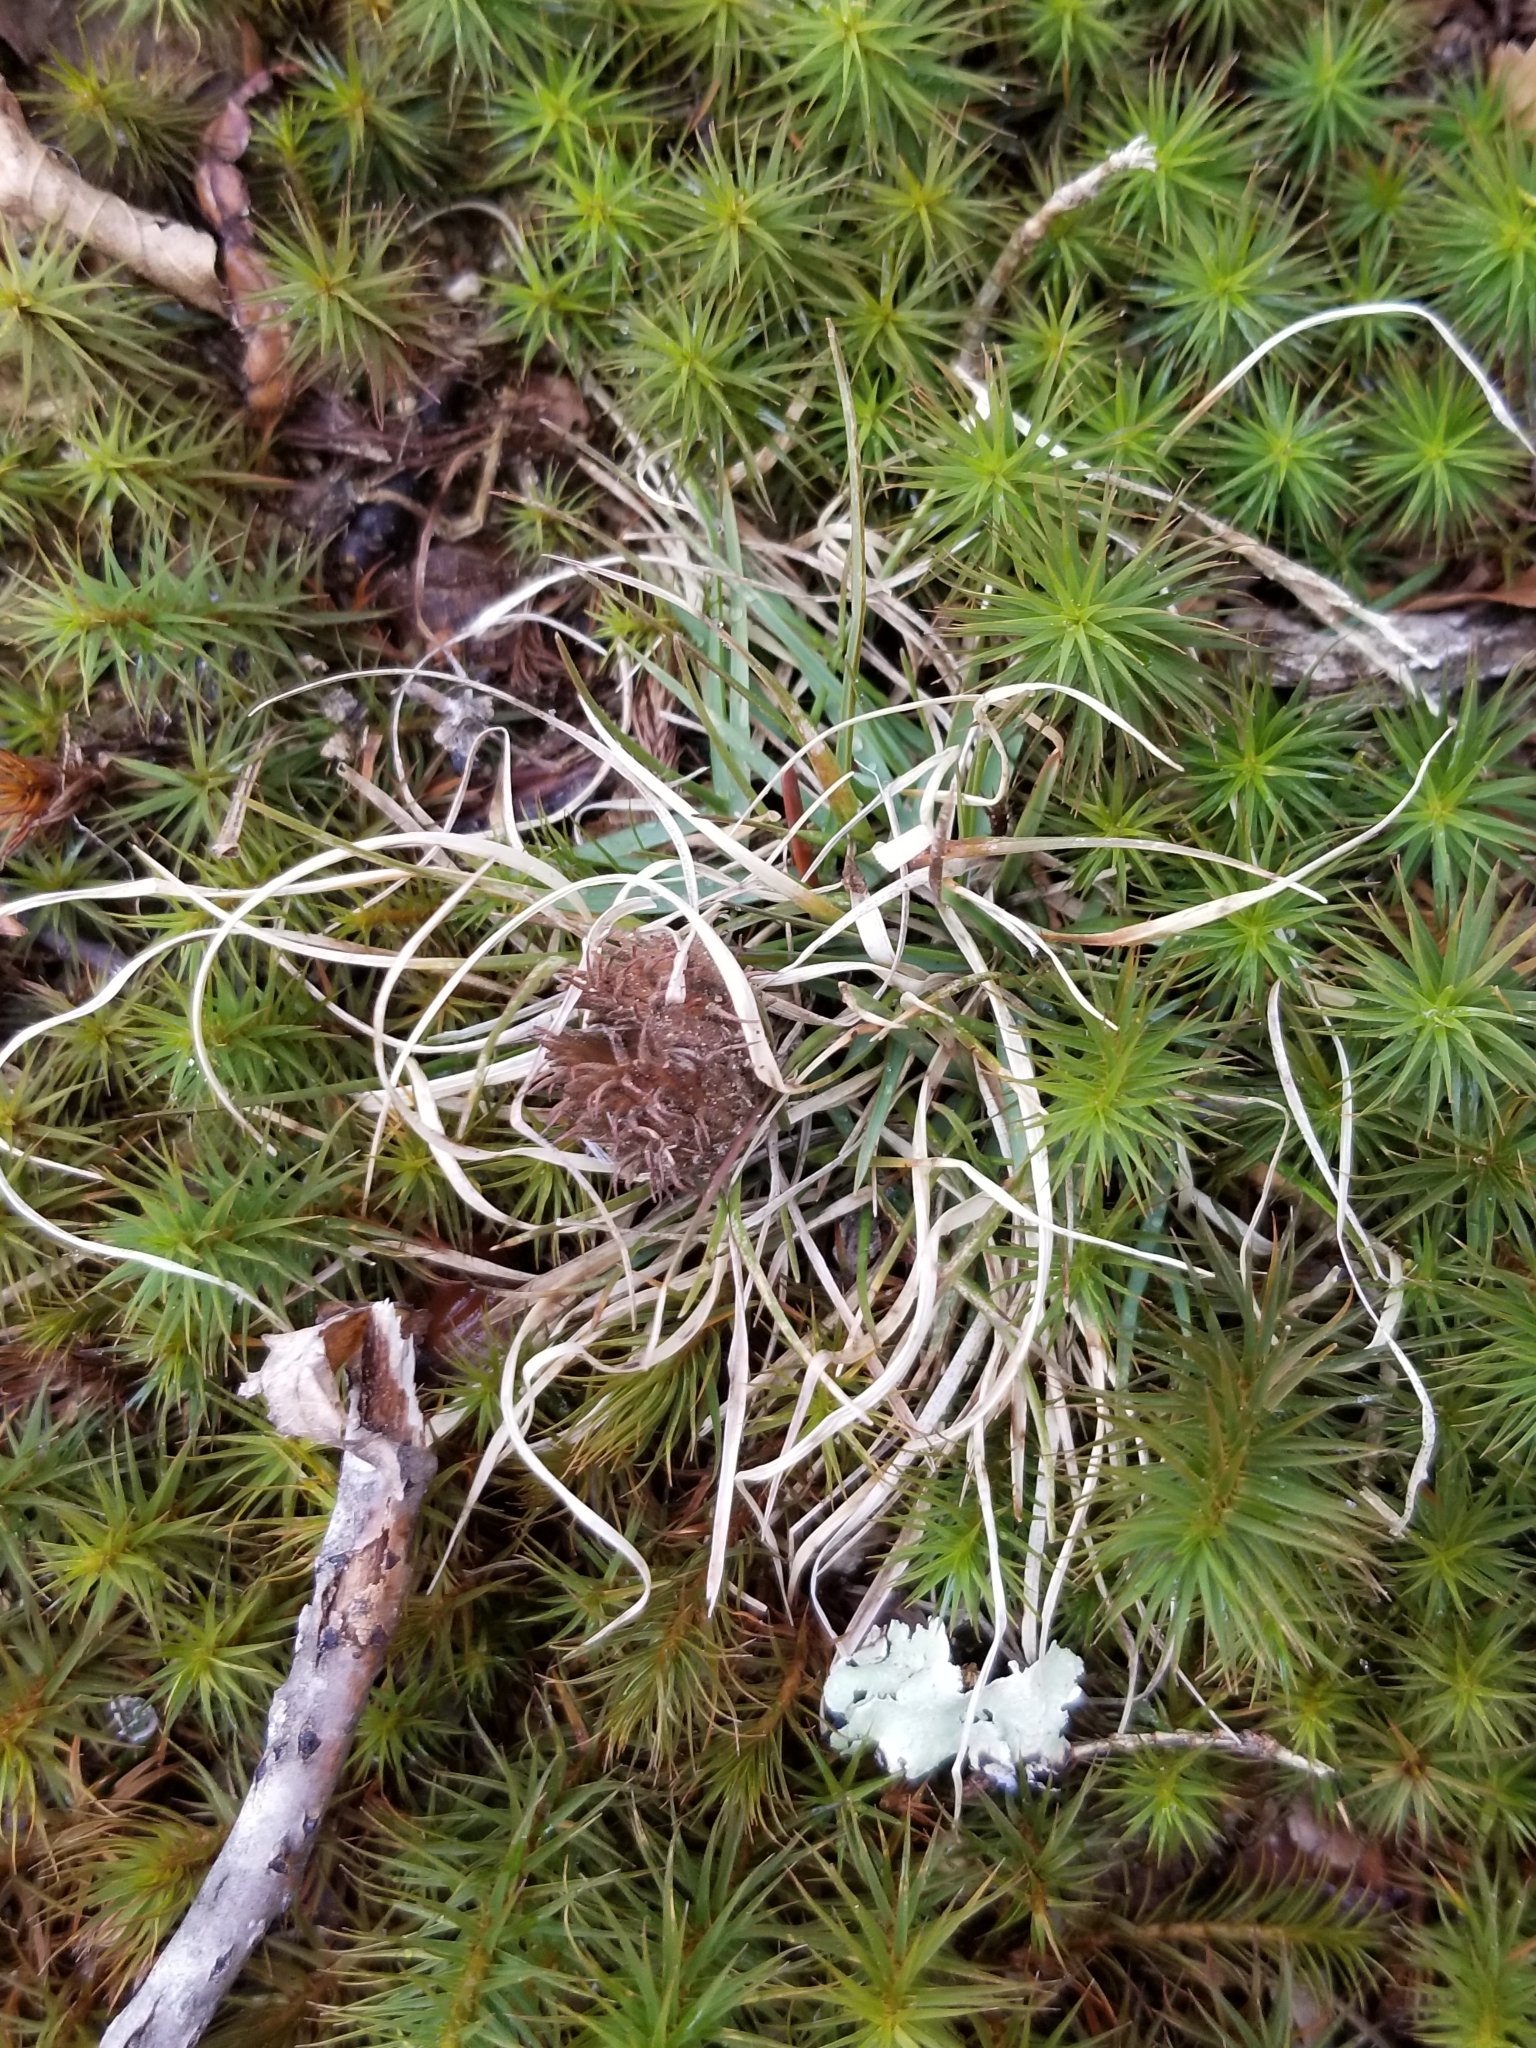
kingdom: Plantae
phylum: Tracheophyta
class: Liliopsida
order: Poales
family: Poaceae
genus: Danthonia
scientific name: Danthonia spicata
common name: Common wild oatgrass
